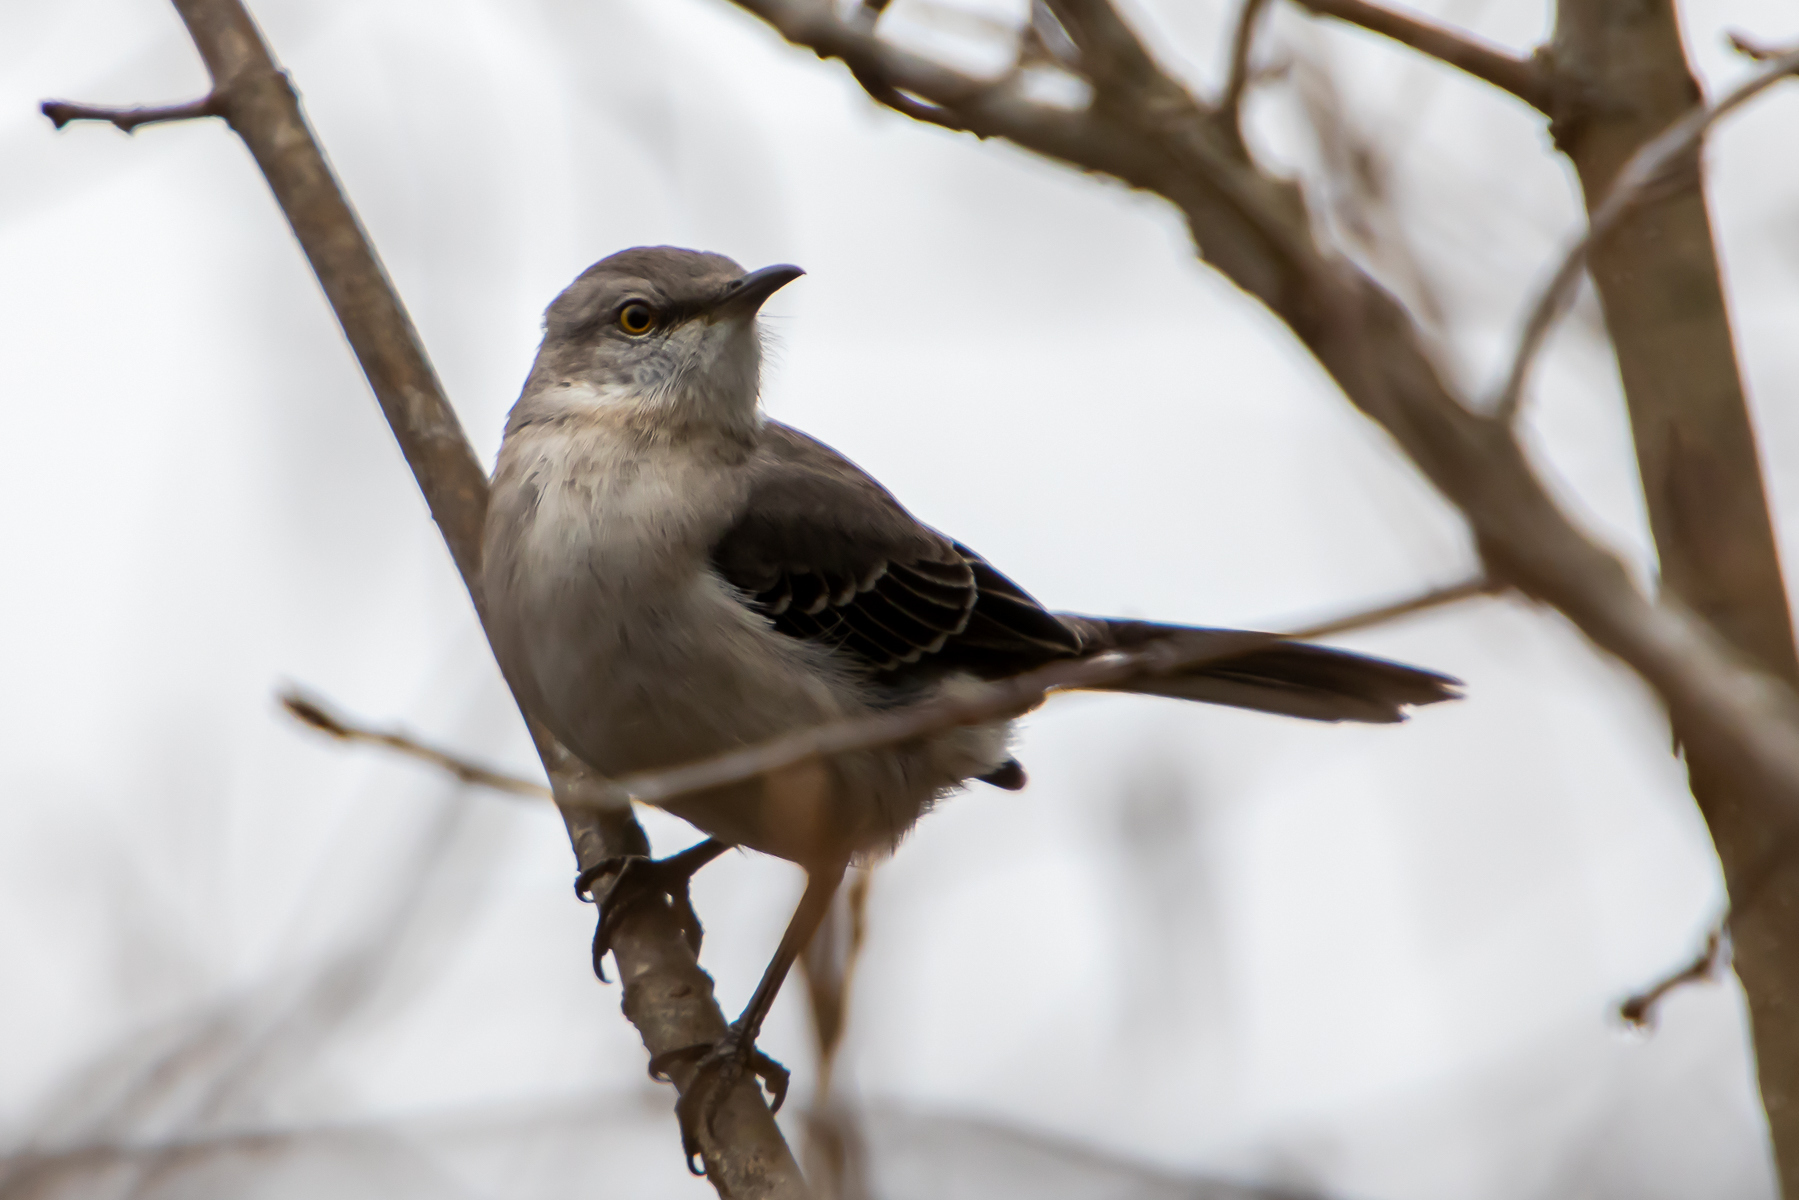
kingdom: Animalia
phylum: Chordata
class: Aves
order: Passeriformes
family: Mimidae
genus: Mimus
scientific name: Mimus polyglottos
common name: Northern mockingbird
